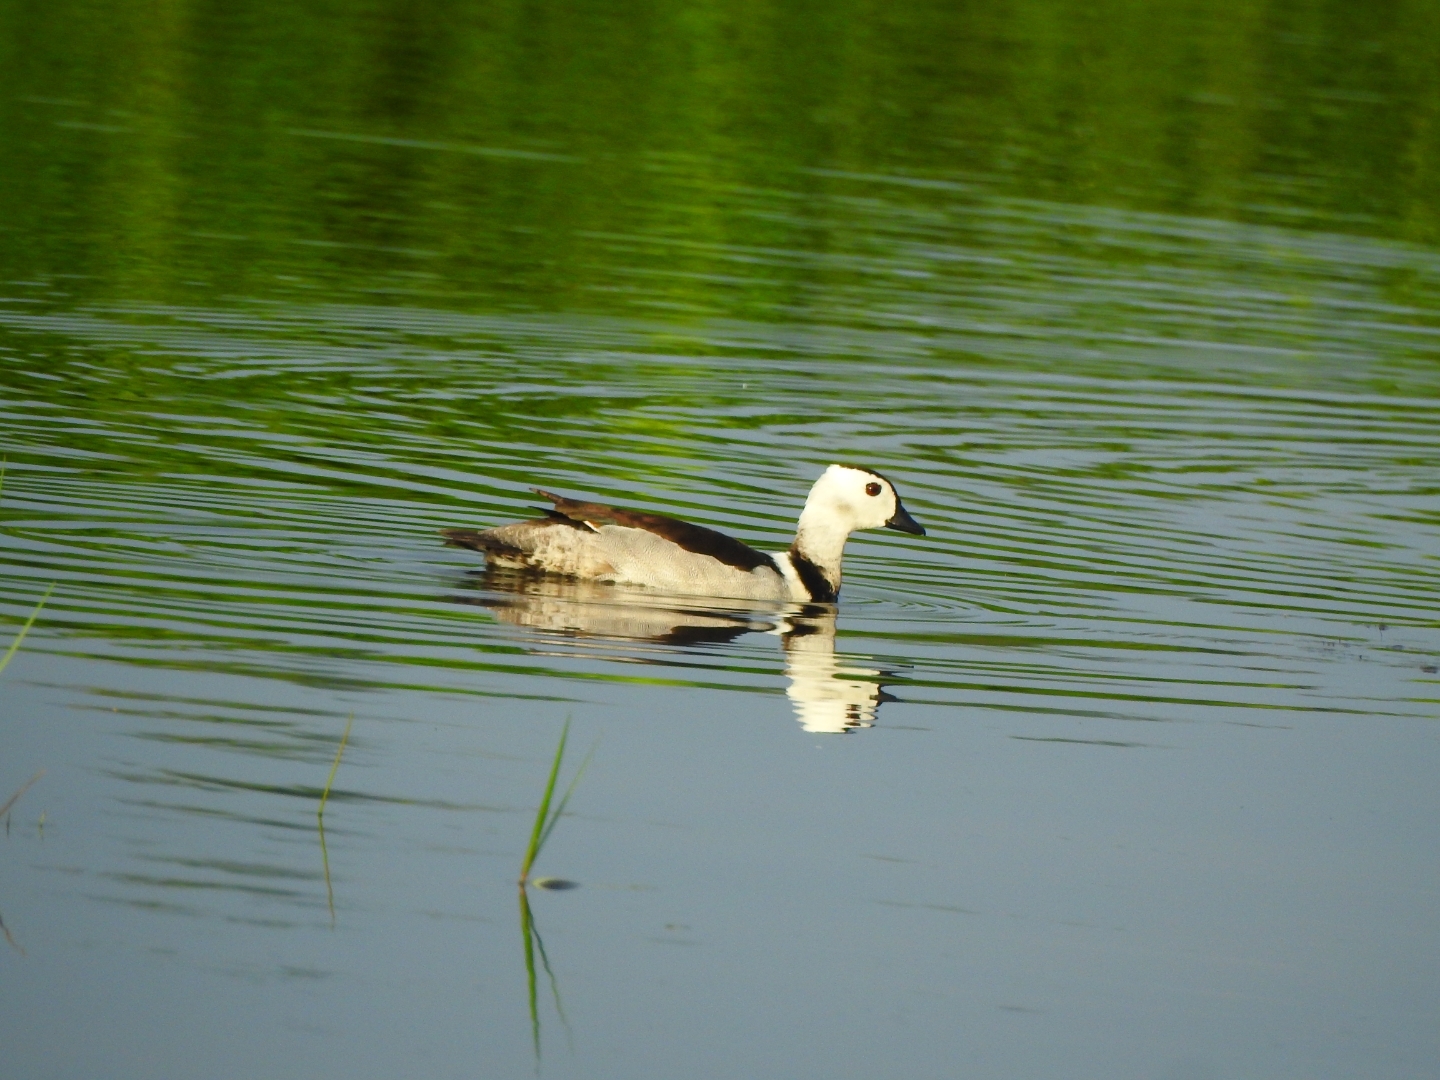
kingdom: Animalia
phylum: Chordata
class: Aves
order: Anseriformes
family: Anatidae
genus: Nettapus
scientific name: Nettapus coromandelianus
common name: Cotton pygmy-goose
